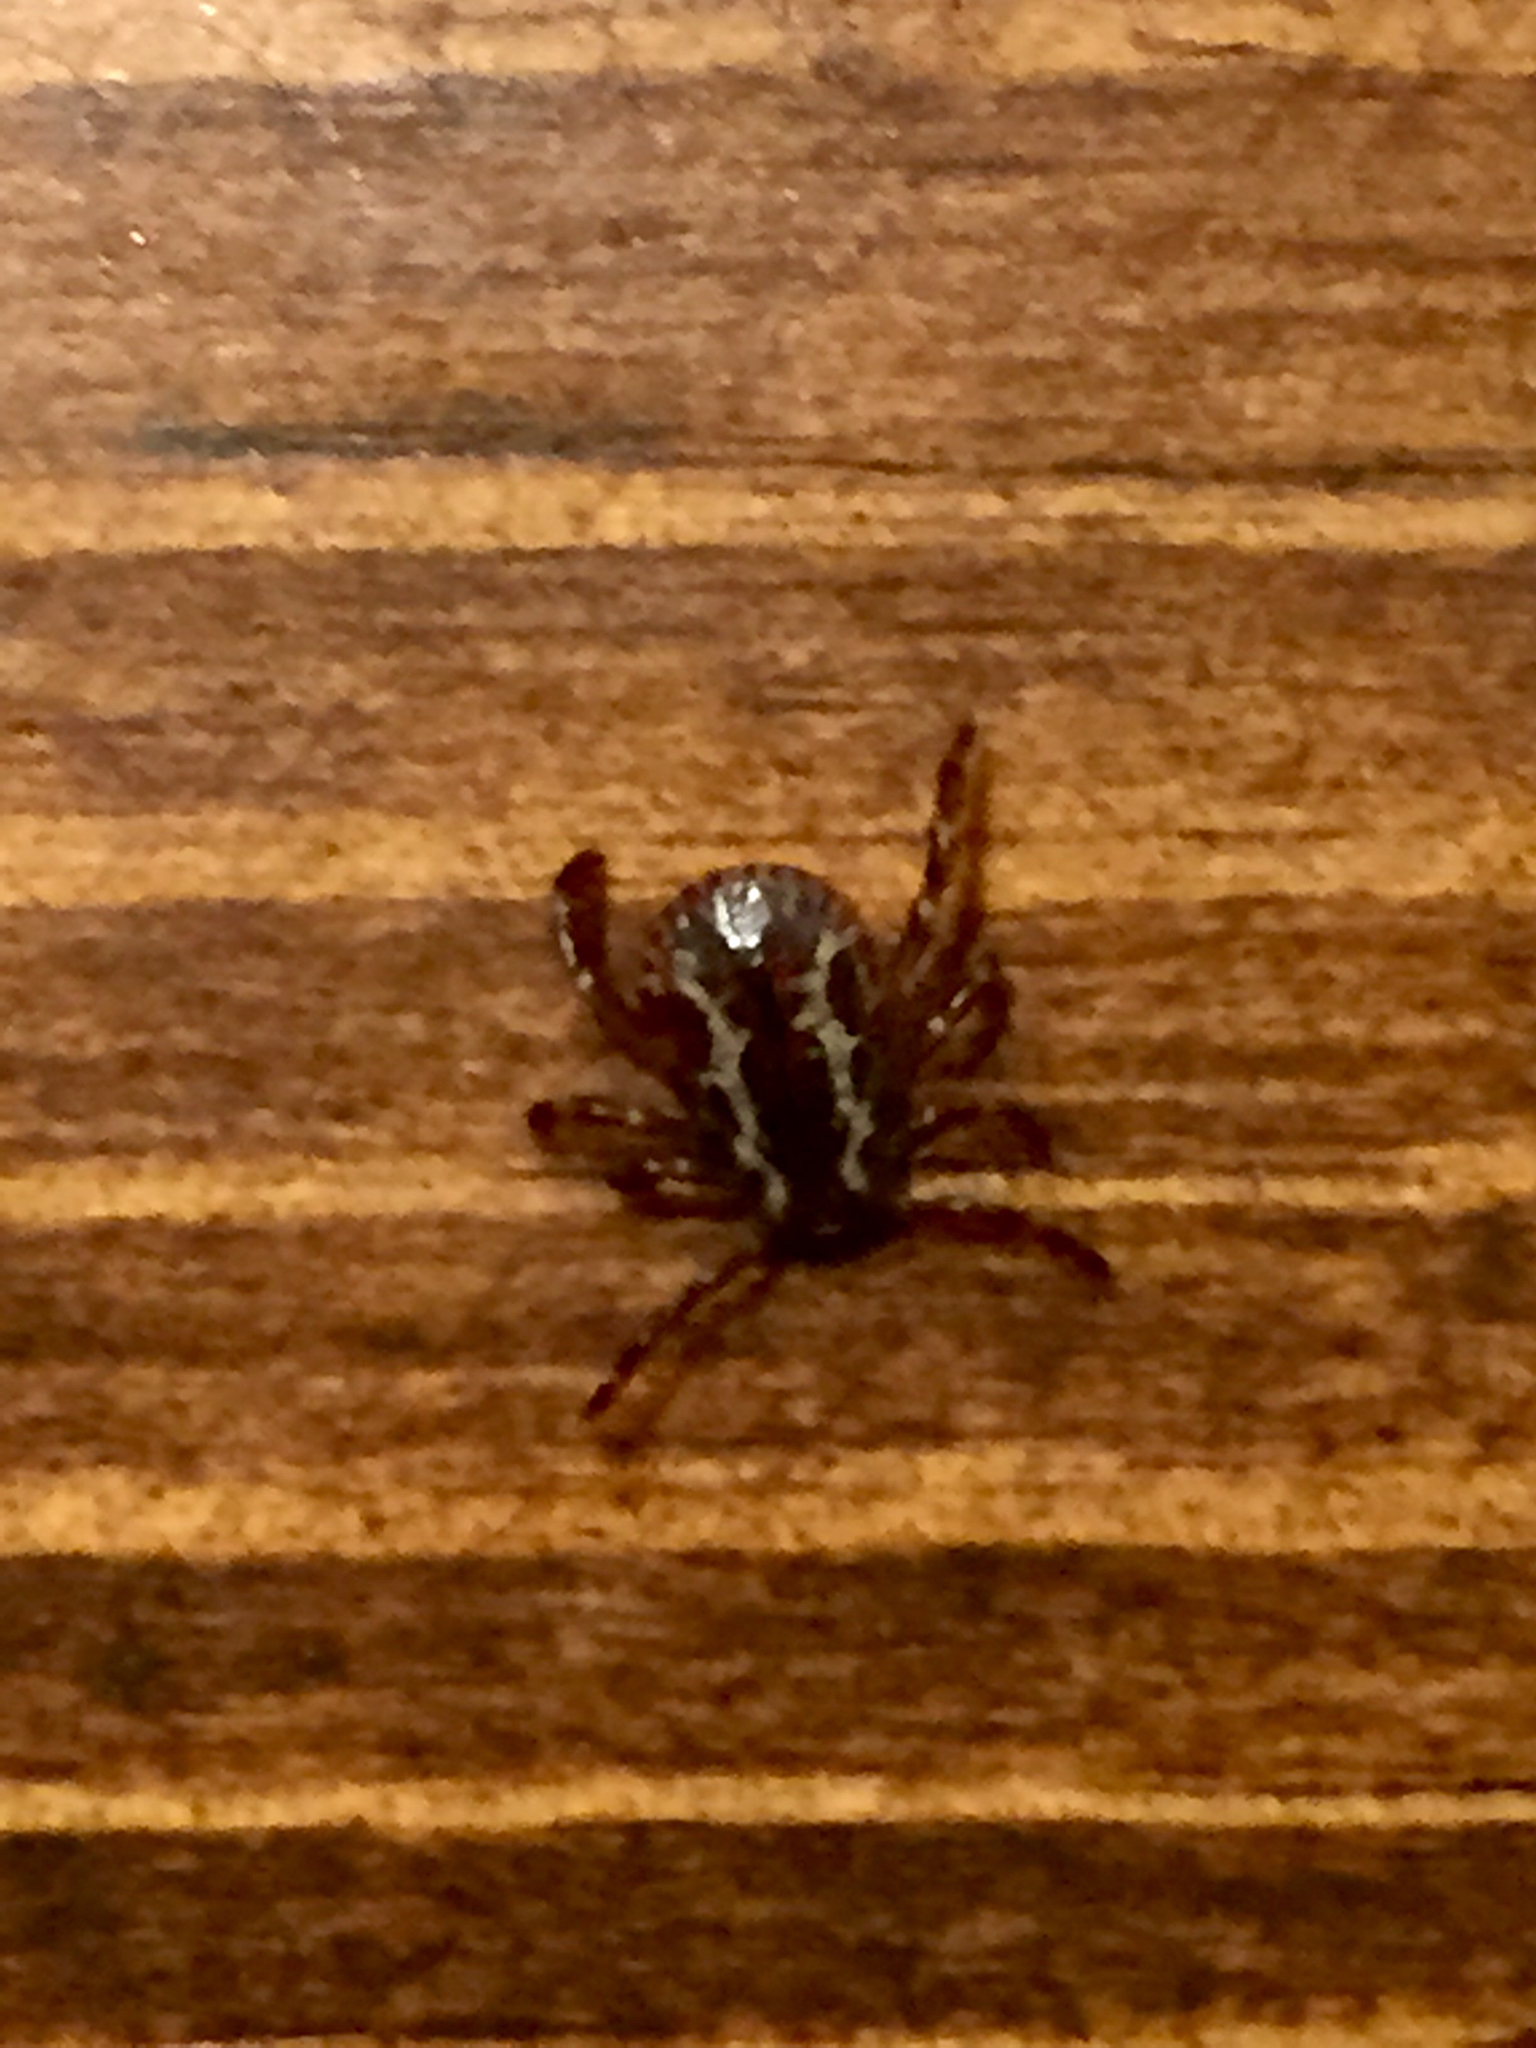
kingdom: Animalia
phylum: Arthropoda
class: Arachnida
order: Ixodida
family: Ixodidae
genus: Dermacentor
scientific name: Dermacentor variabilis
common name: American dog tick
